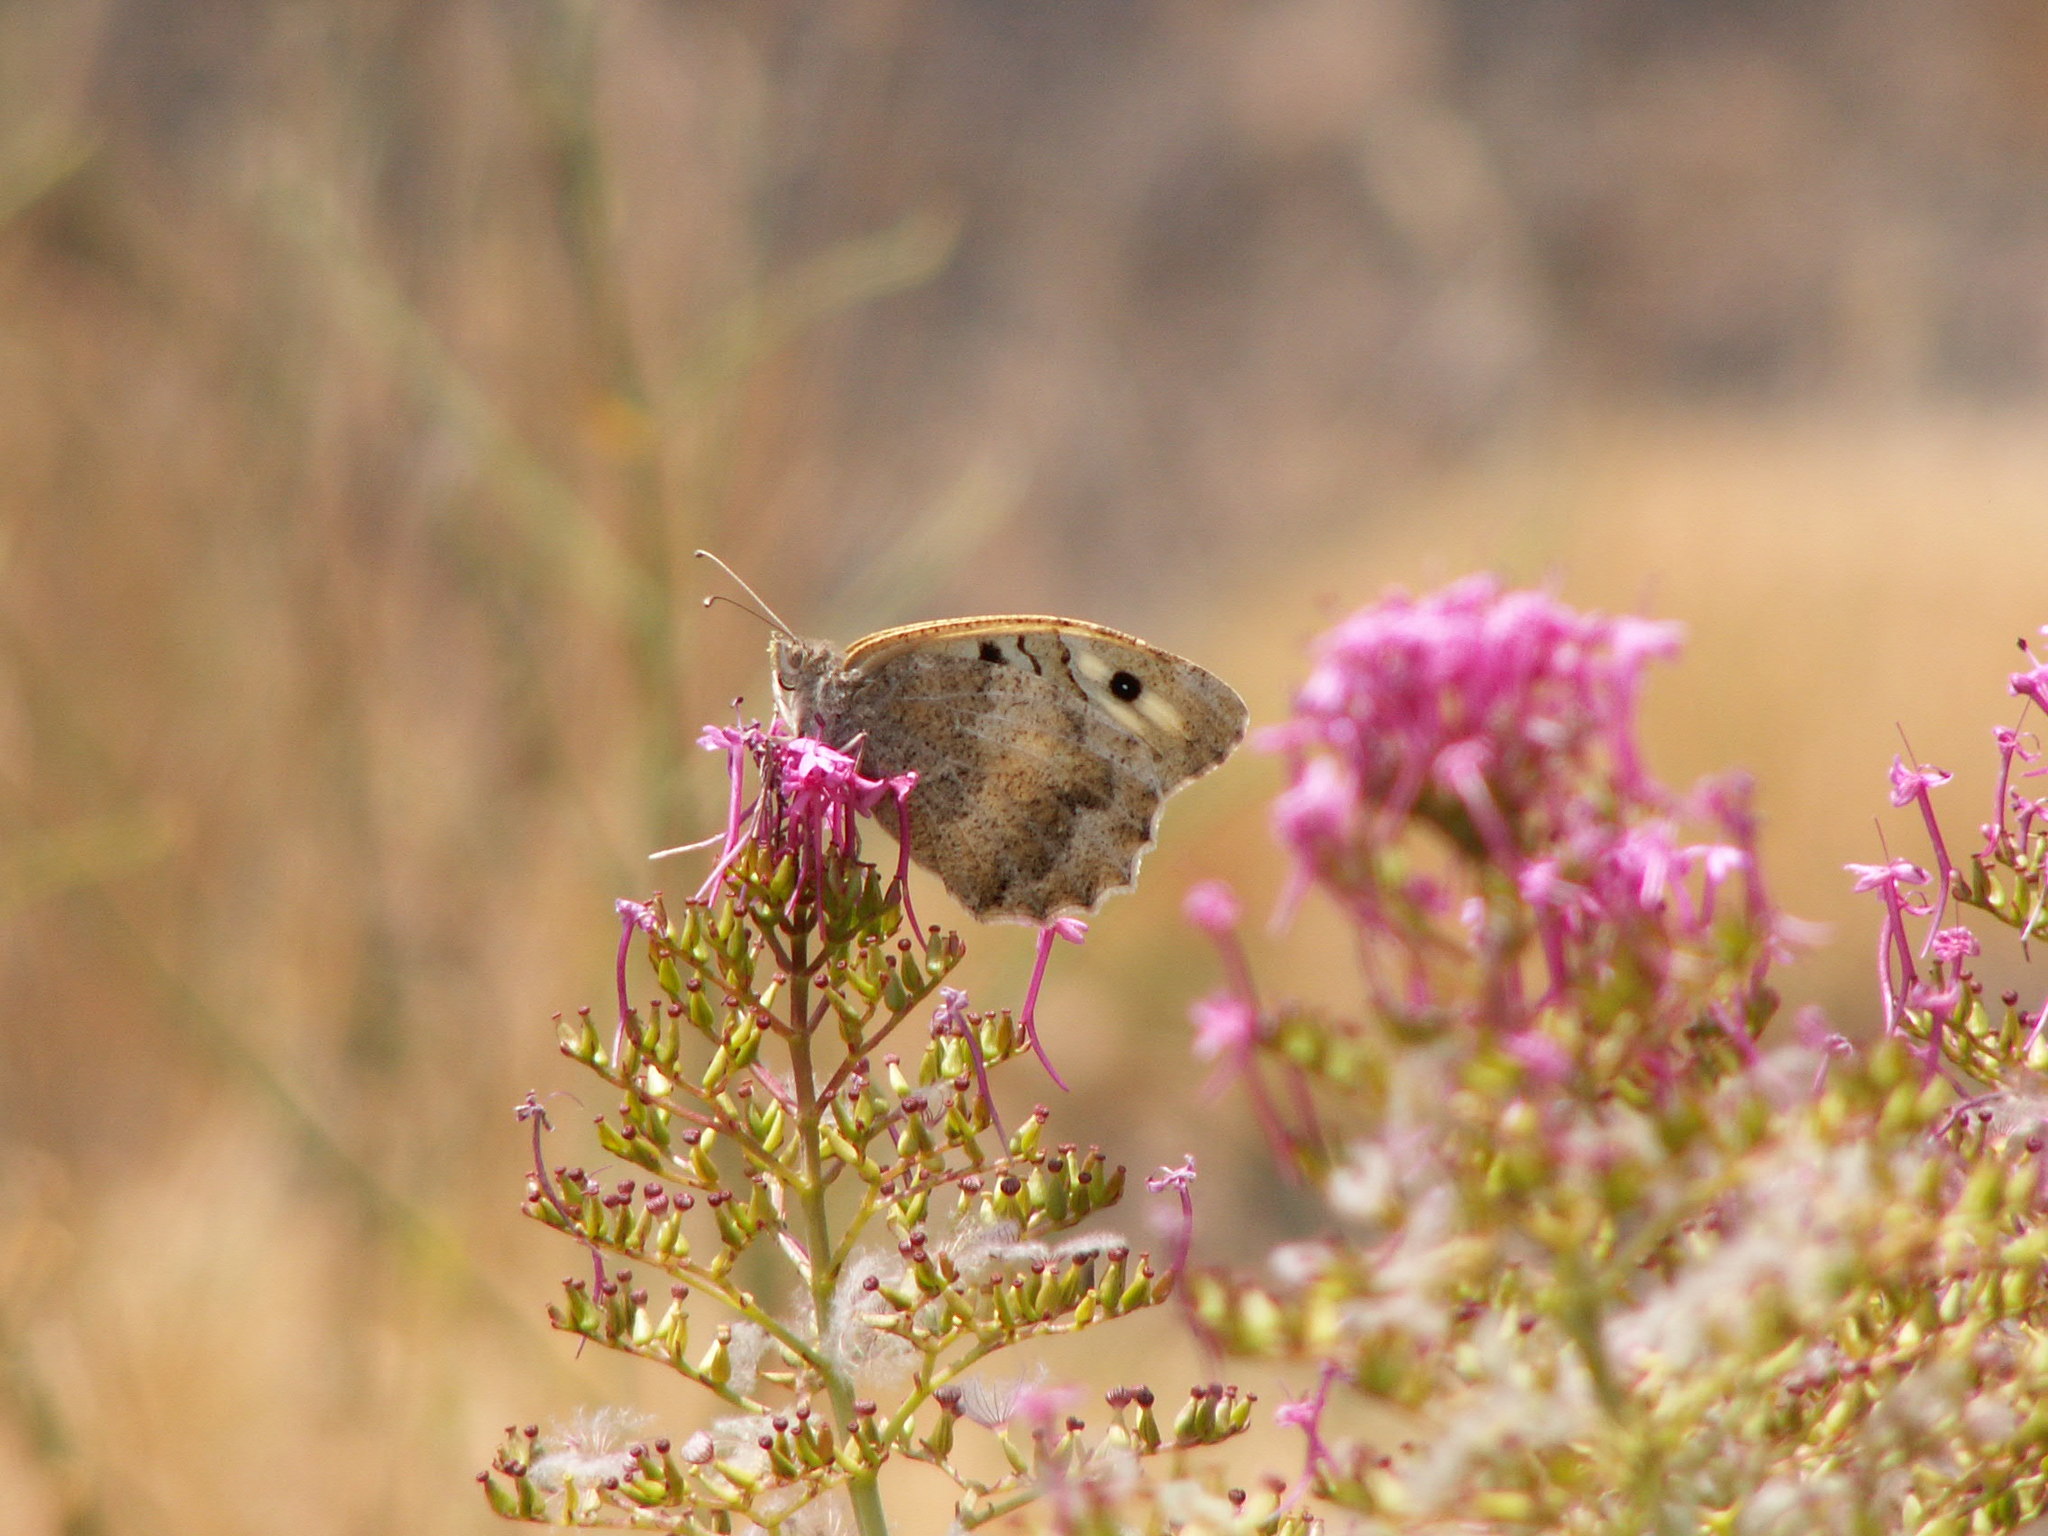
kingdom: Animalia
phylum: Arthropoda
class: Insecta
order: Lepidoptera
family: Nymphalidae
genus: Satyrus
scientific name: Satyrus briseis
